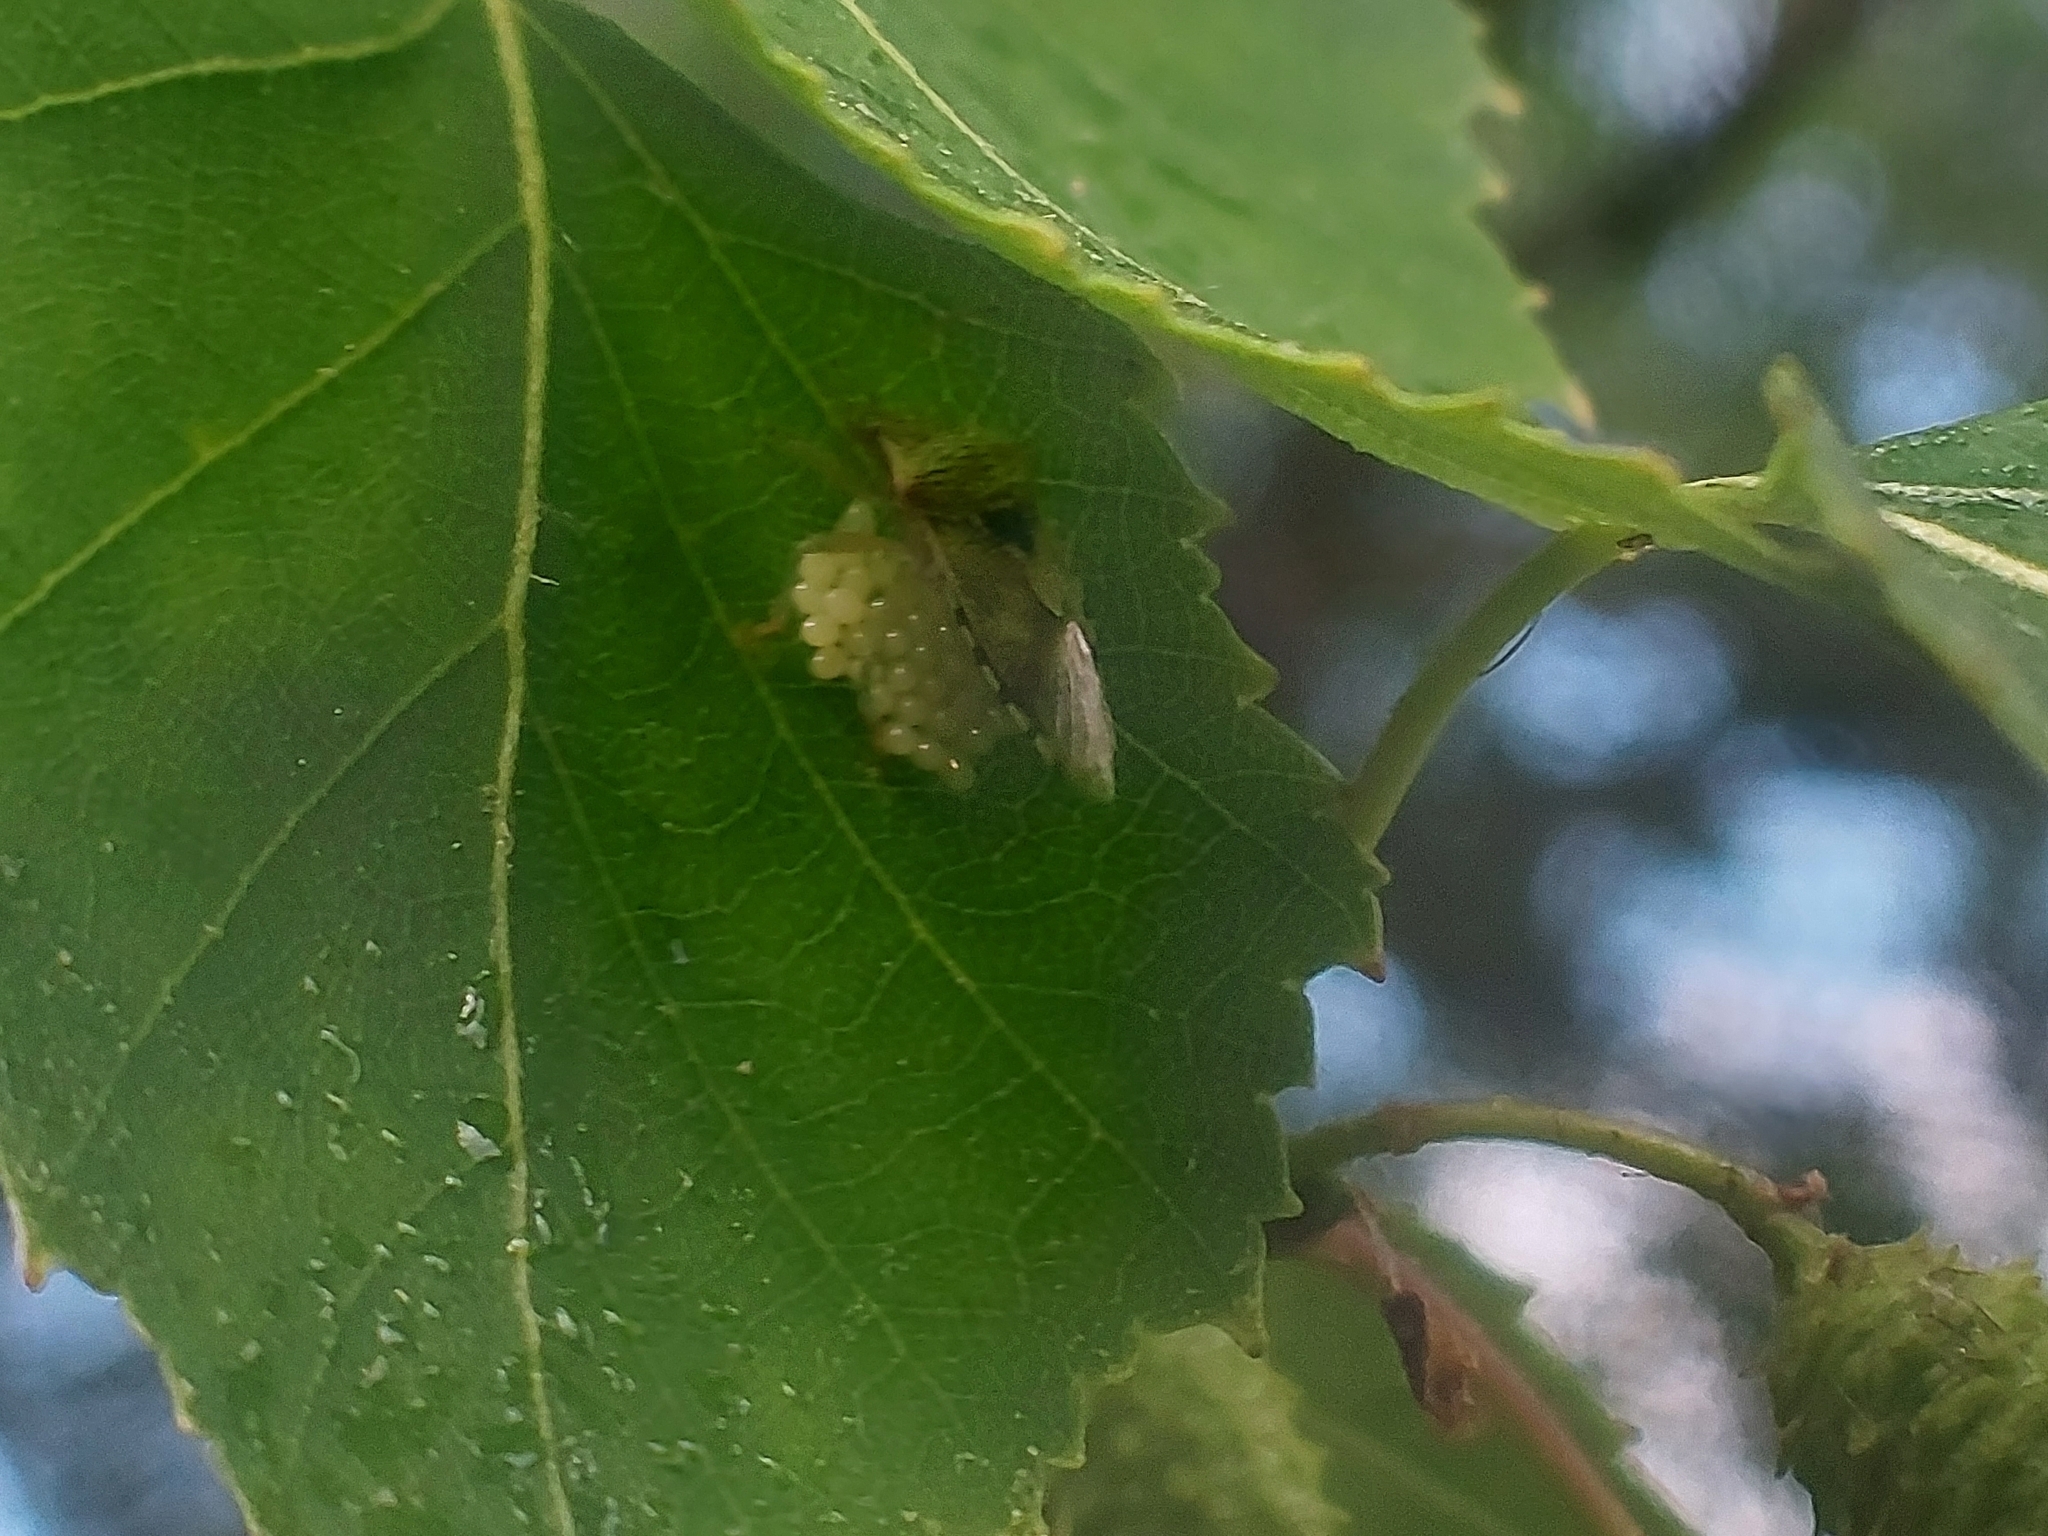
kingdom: Animalia
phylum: Arthropoda
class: Insecta
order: Hemiptera
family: Acanthosomatidae
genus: Elasmucha
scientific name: Elasmucha grisea
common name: Parent bug
